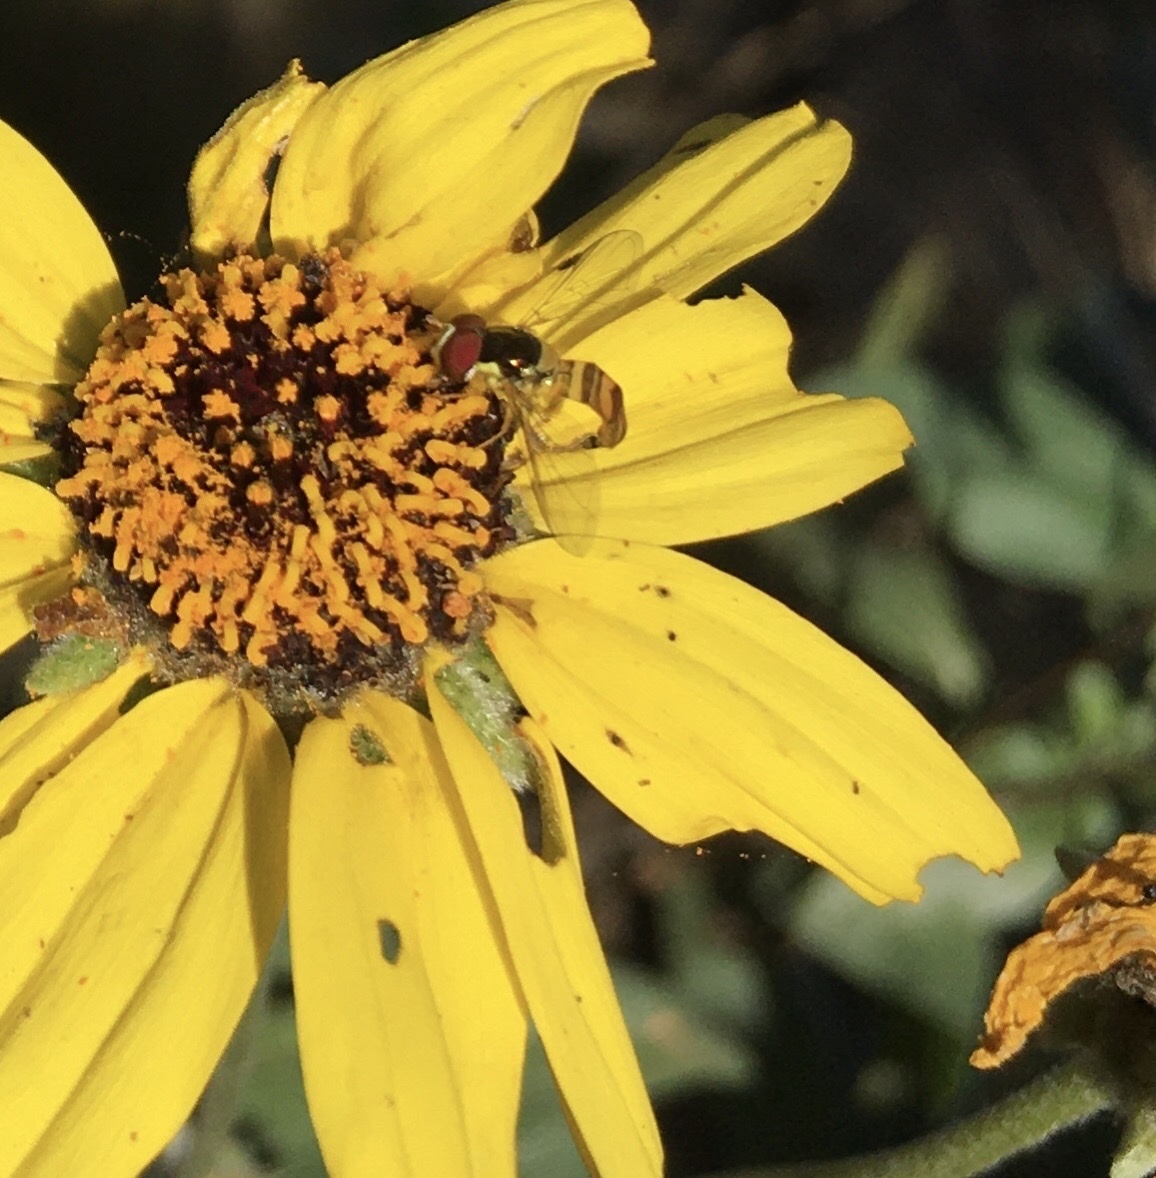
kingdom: Animalia
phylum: Arthropoda
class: Insecta
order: Diptera
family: Syrphidae
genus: Allograpta
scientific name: Allograpta obliqua
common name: Common oblique syrphid
